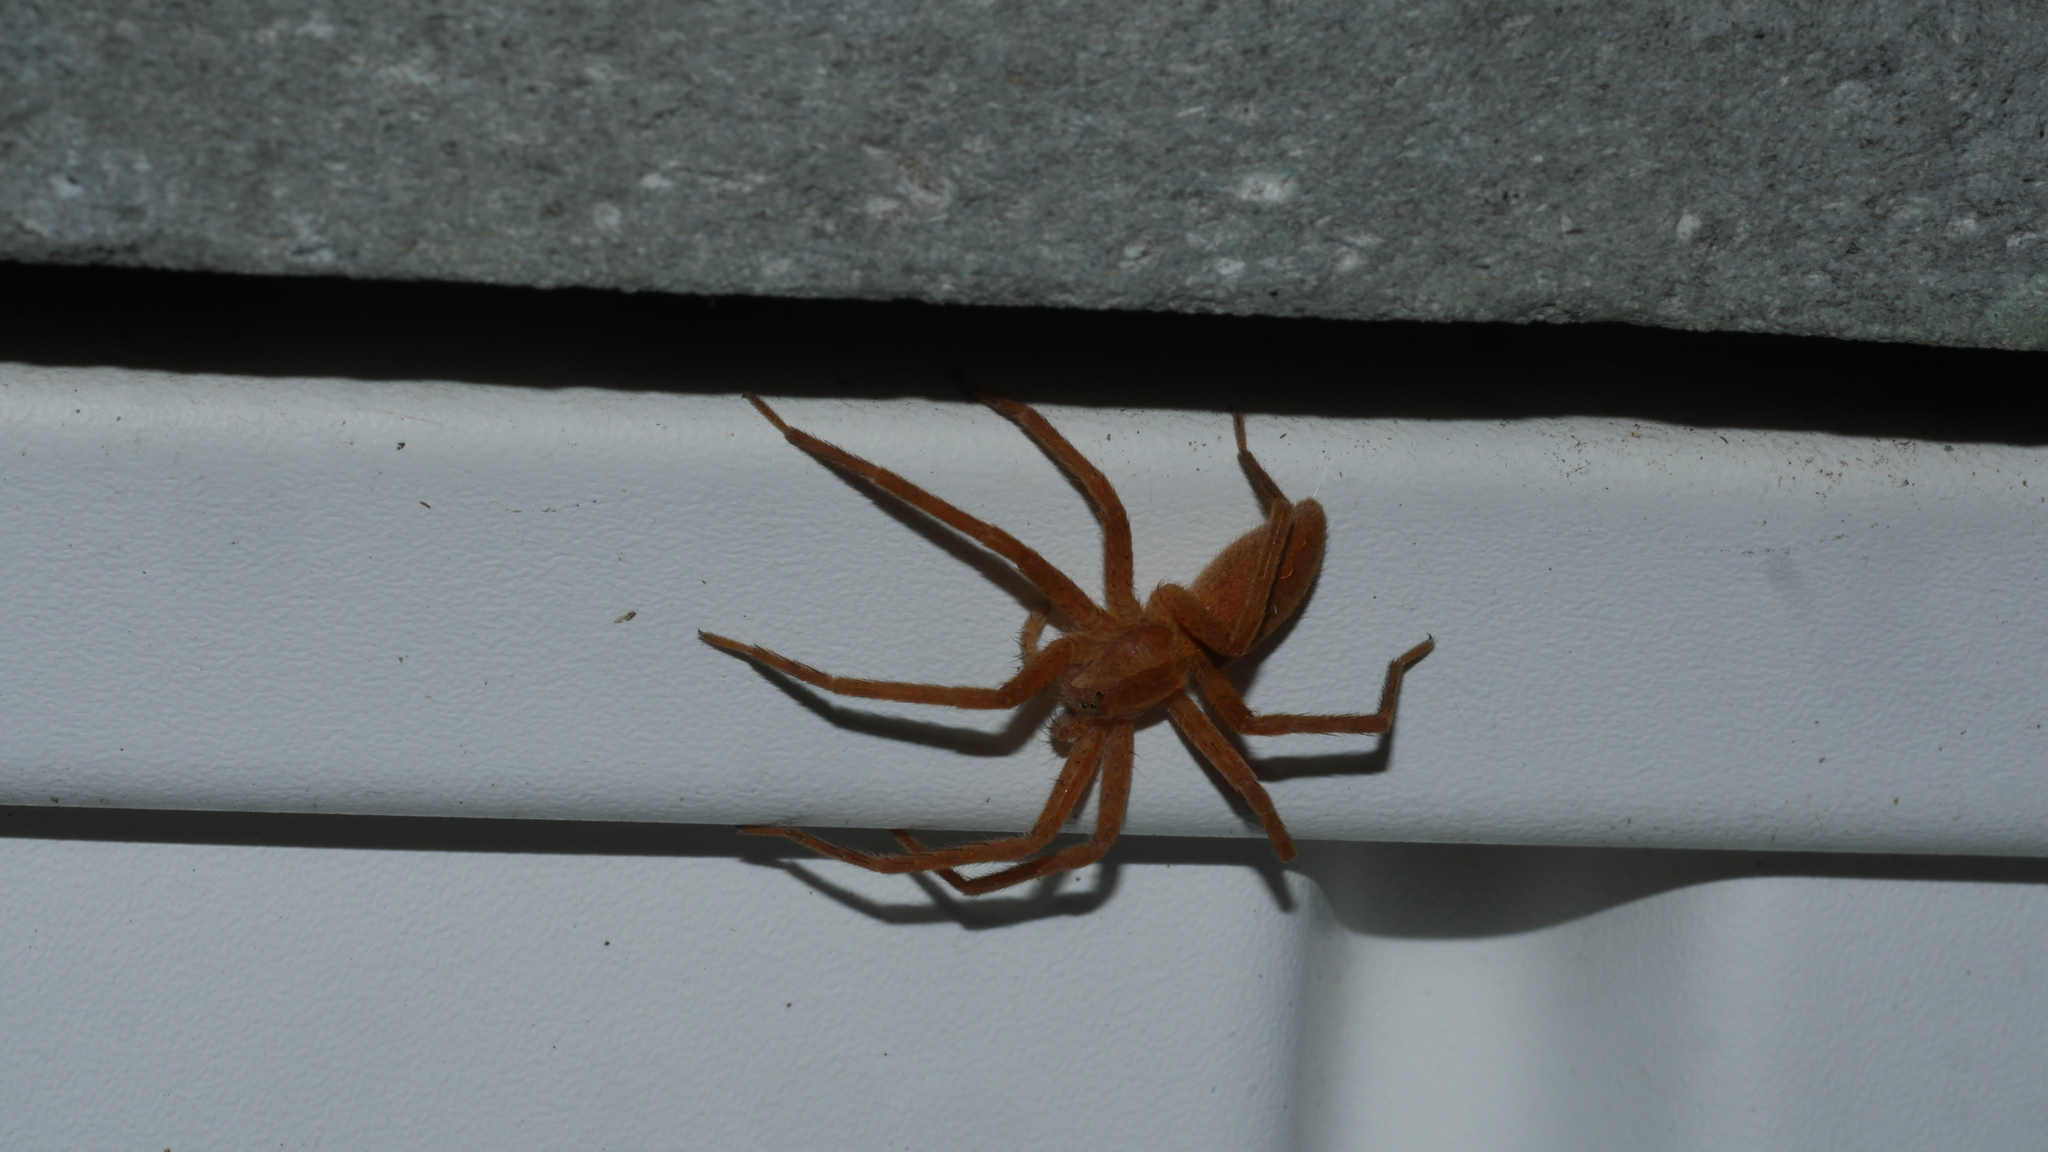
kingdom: Animalia
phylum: Arthropoda
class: Arachnida
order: Araneae
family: Pisauridae
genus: Pisaurina
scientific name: Pisaurina mira
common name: American nursery web spider
